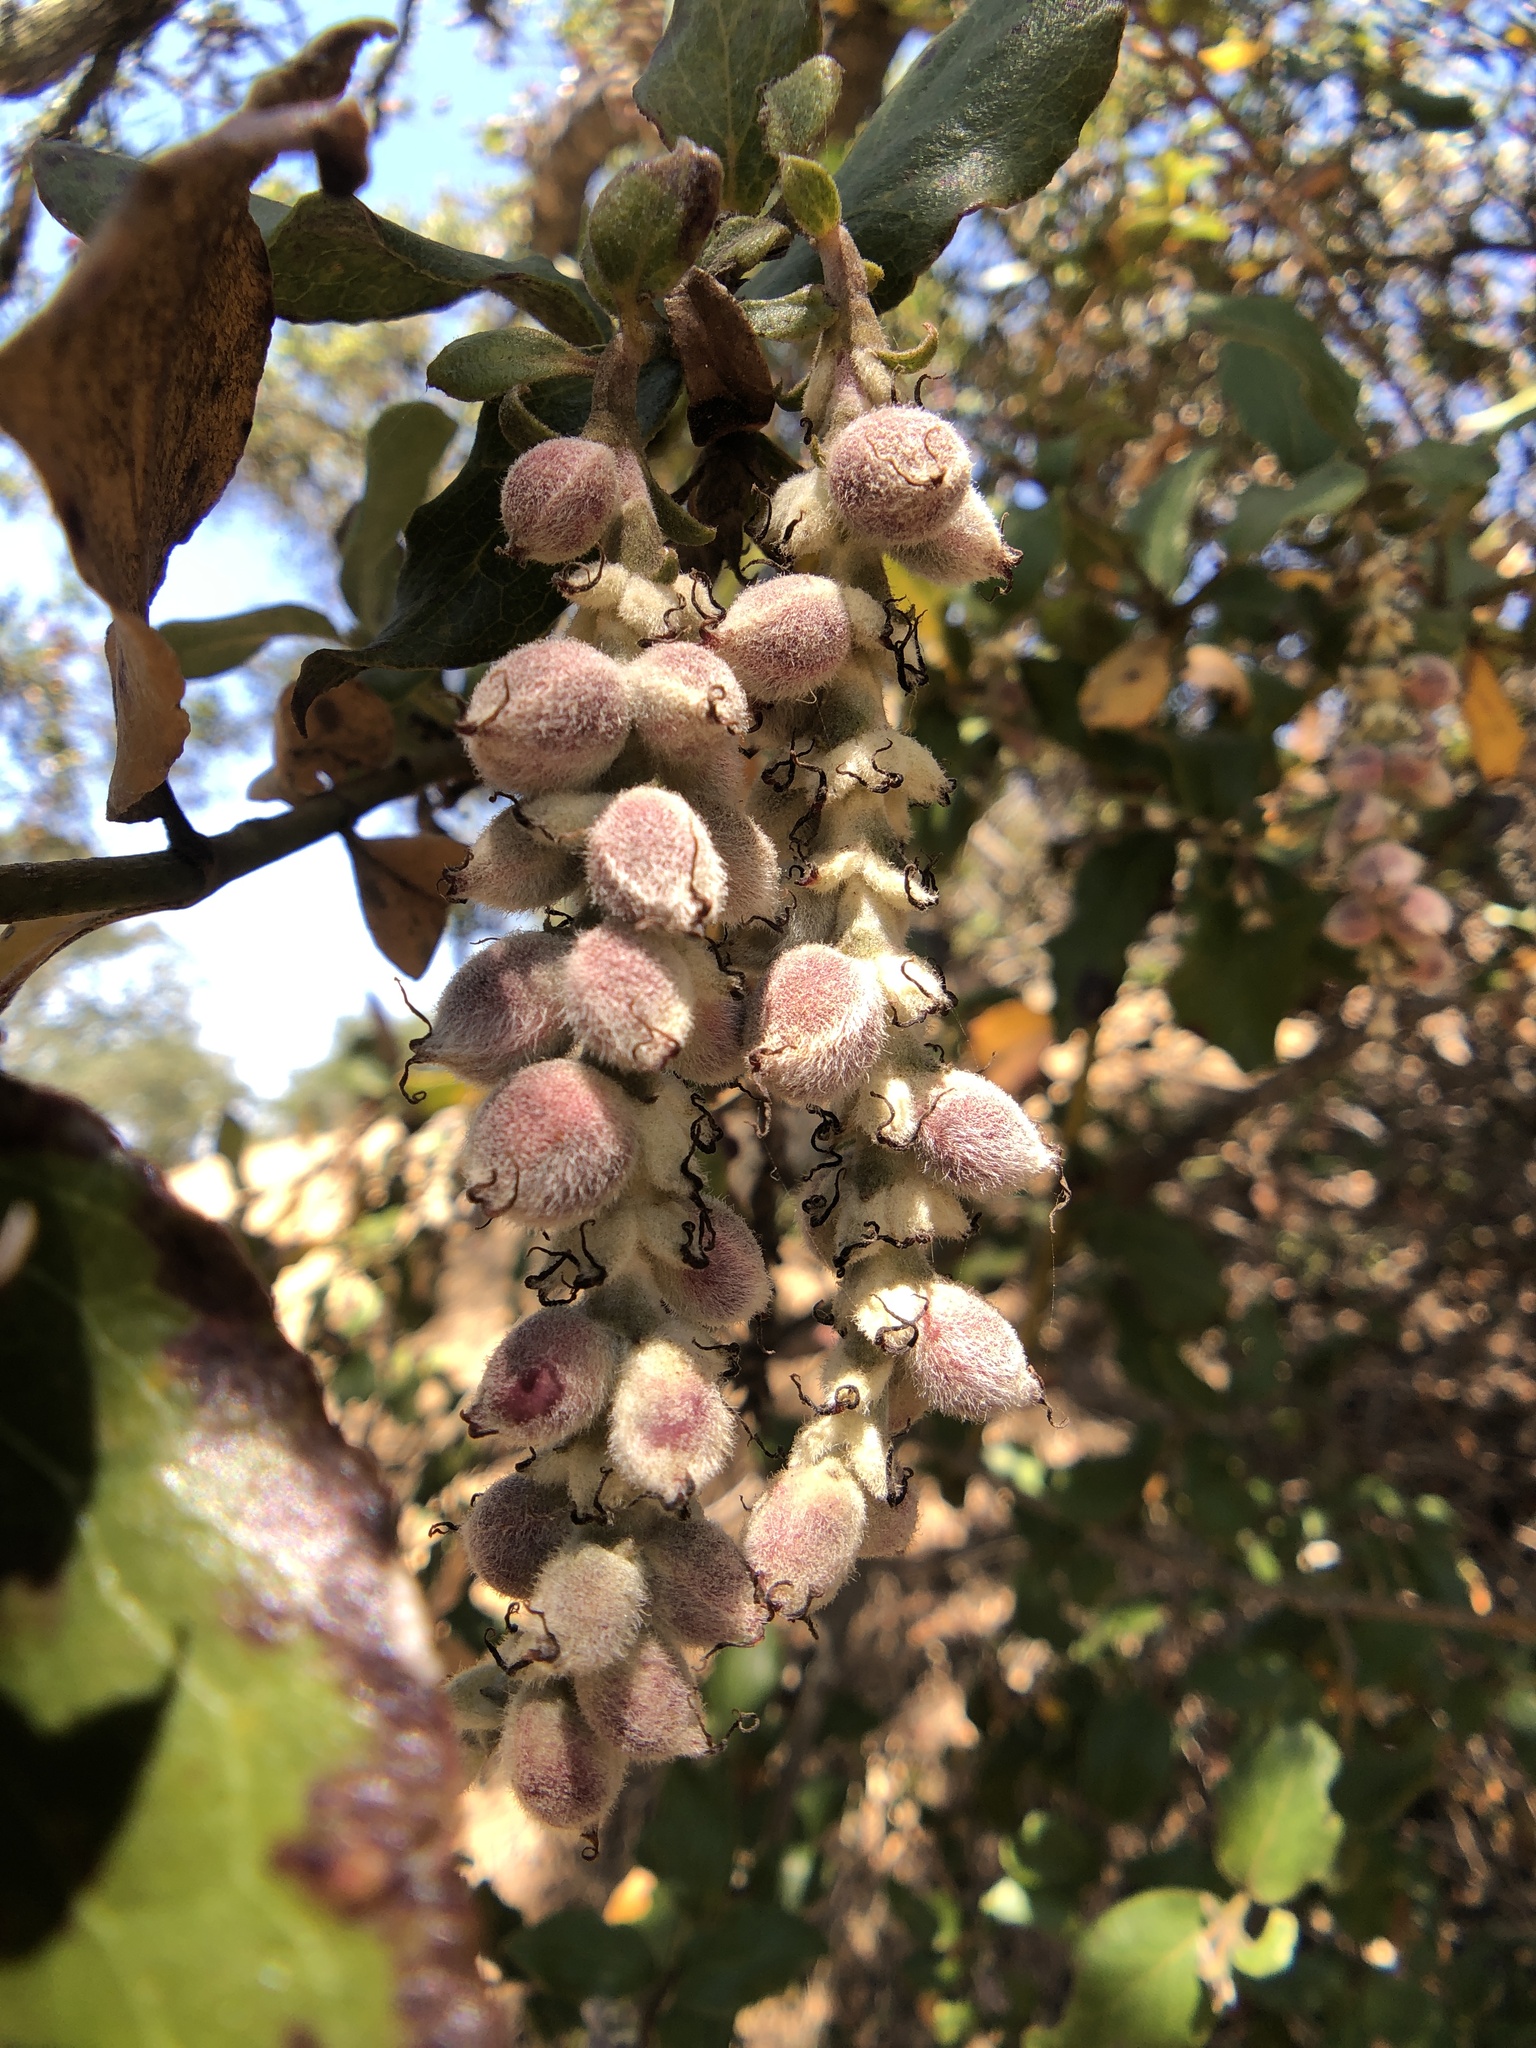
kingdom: Plantae
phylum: Tracheophyta
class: Magnoliopsida
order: Garryales
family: Garryaceae
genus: Garrya
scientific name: Garrya elliptica
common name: Silk-tassel
